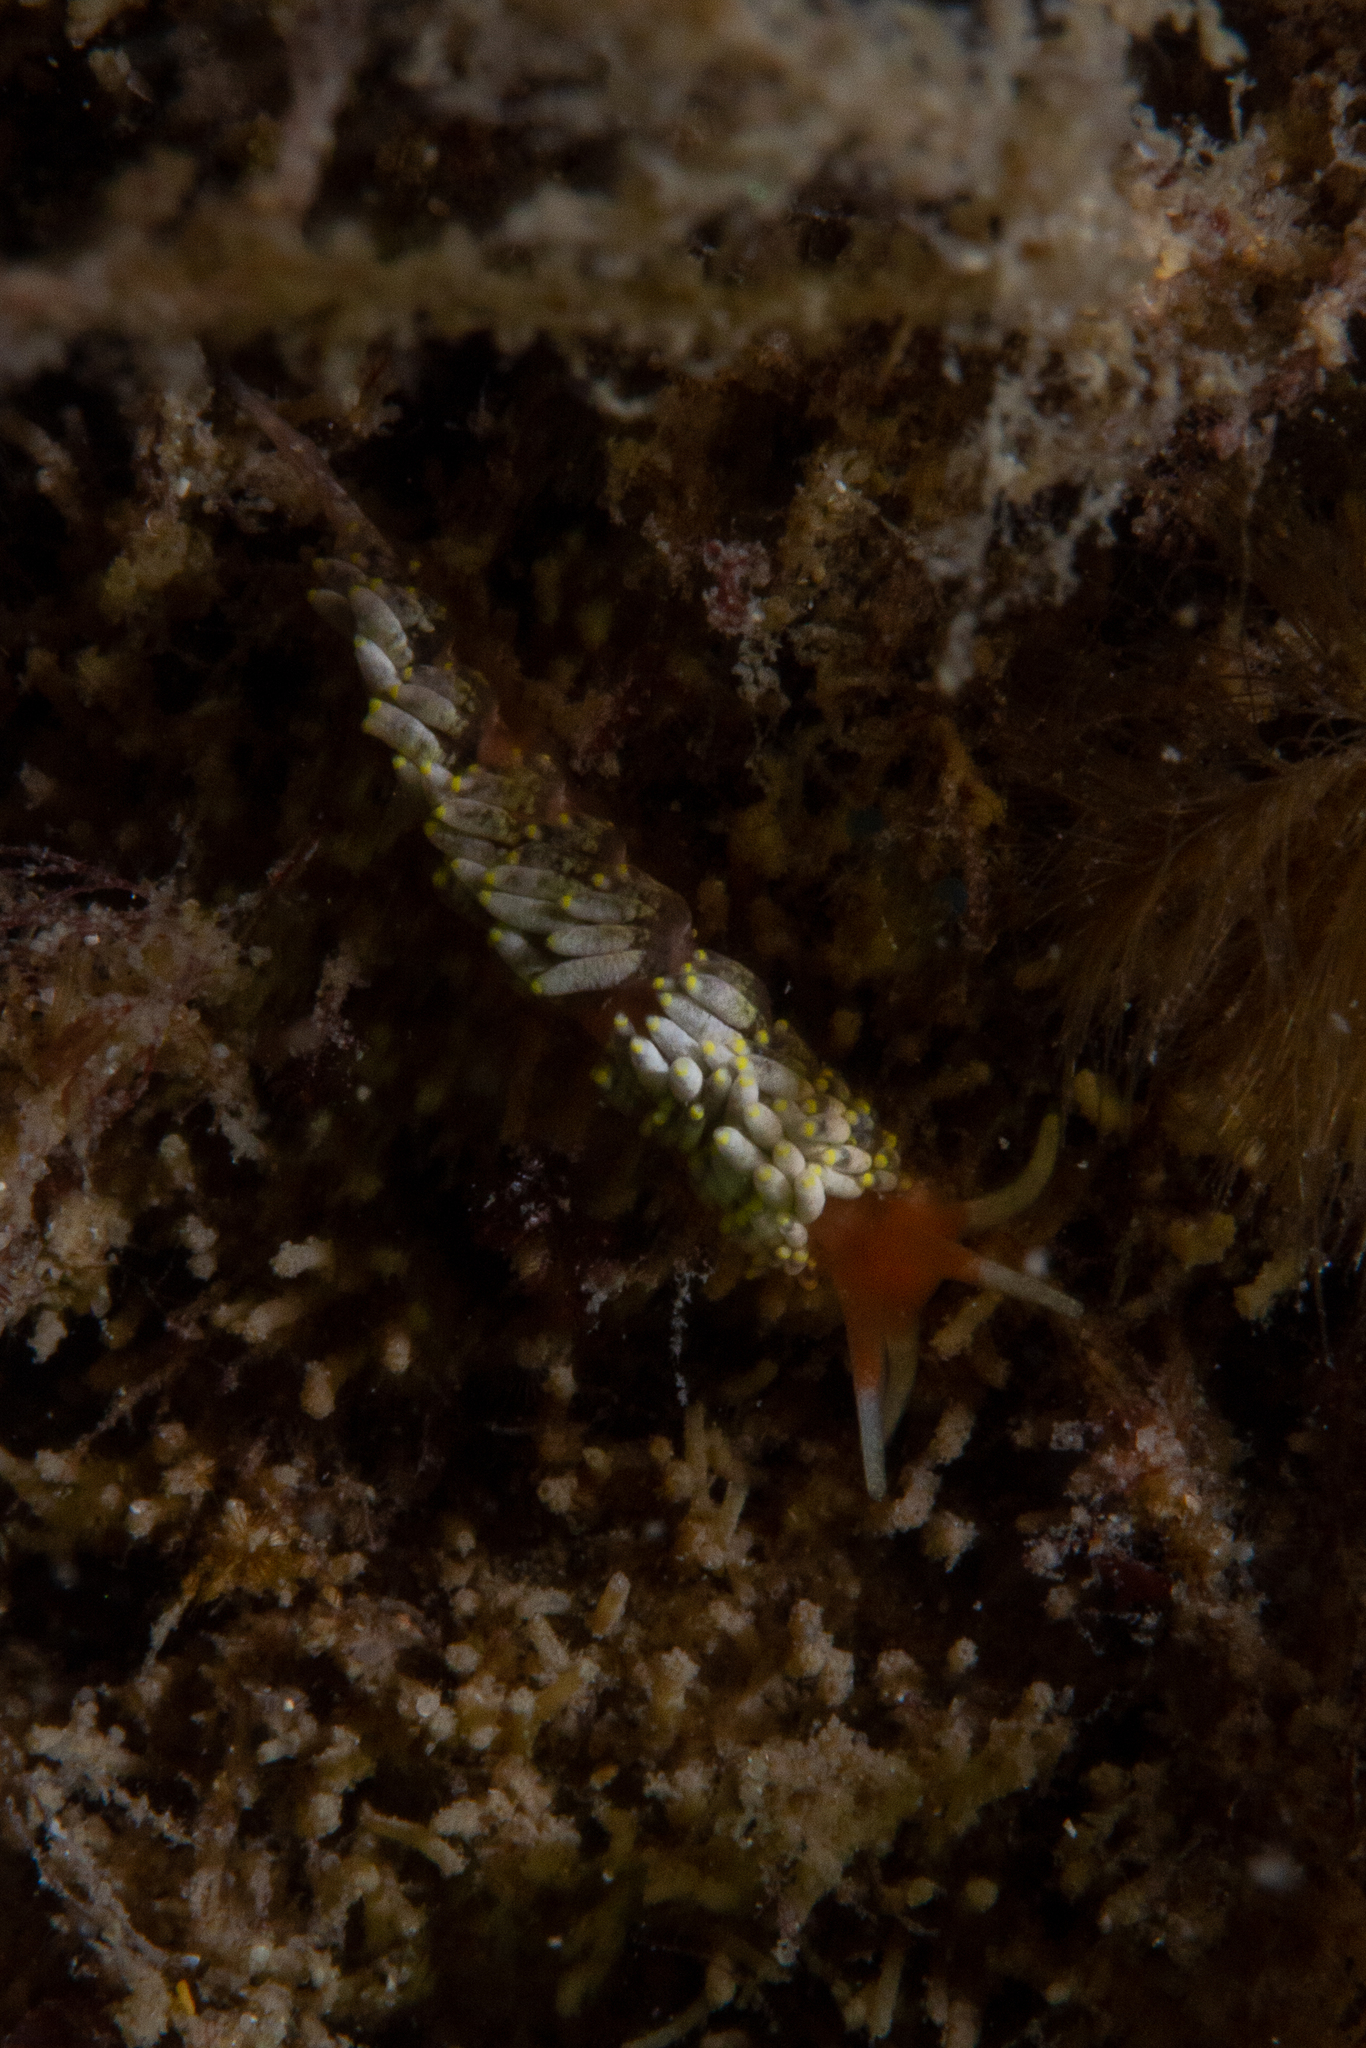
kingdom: Animalia
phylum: Mollusca
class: Gastropoda
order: Nudibranchia
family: Trinchesiidae
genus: Trinchesia
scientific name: Trinchesia catachroma
